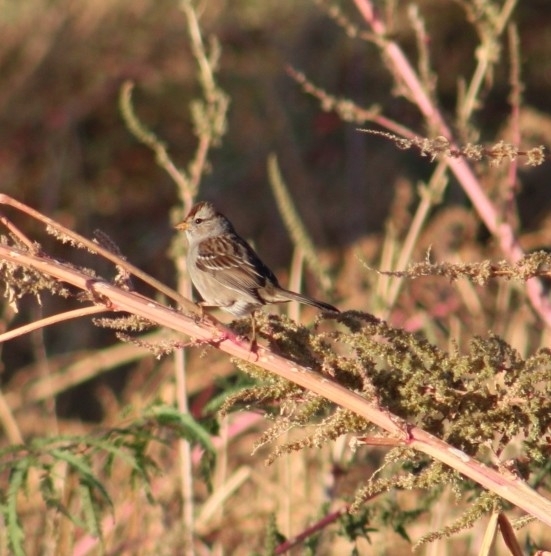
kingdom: Animalia
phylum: Chordata
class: Aves
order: Passeriformes
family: Passerellidae
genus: Zonotrichia
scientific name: Zonotrichia leucophrys
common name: White-crowned sparrow
